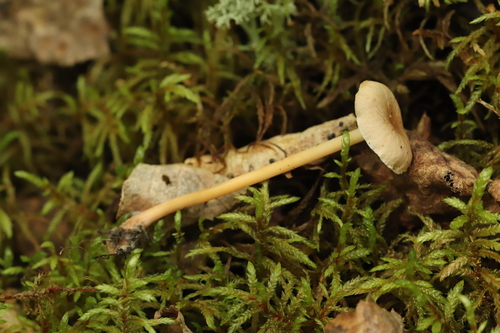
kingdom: Fungi
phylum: Basidiomycota
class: Agaricomycetes
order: Agaricales
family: Omphalotaceae
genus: Gymnopus
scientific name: Gymnopus dryophilus
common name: Penny top
